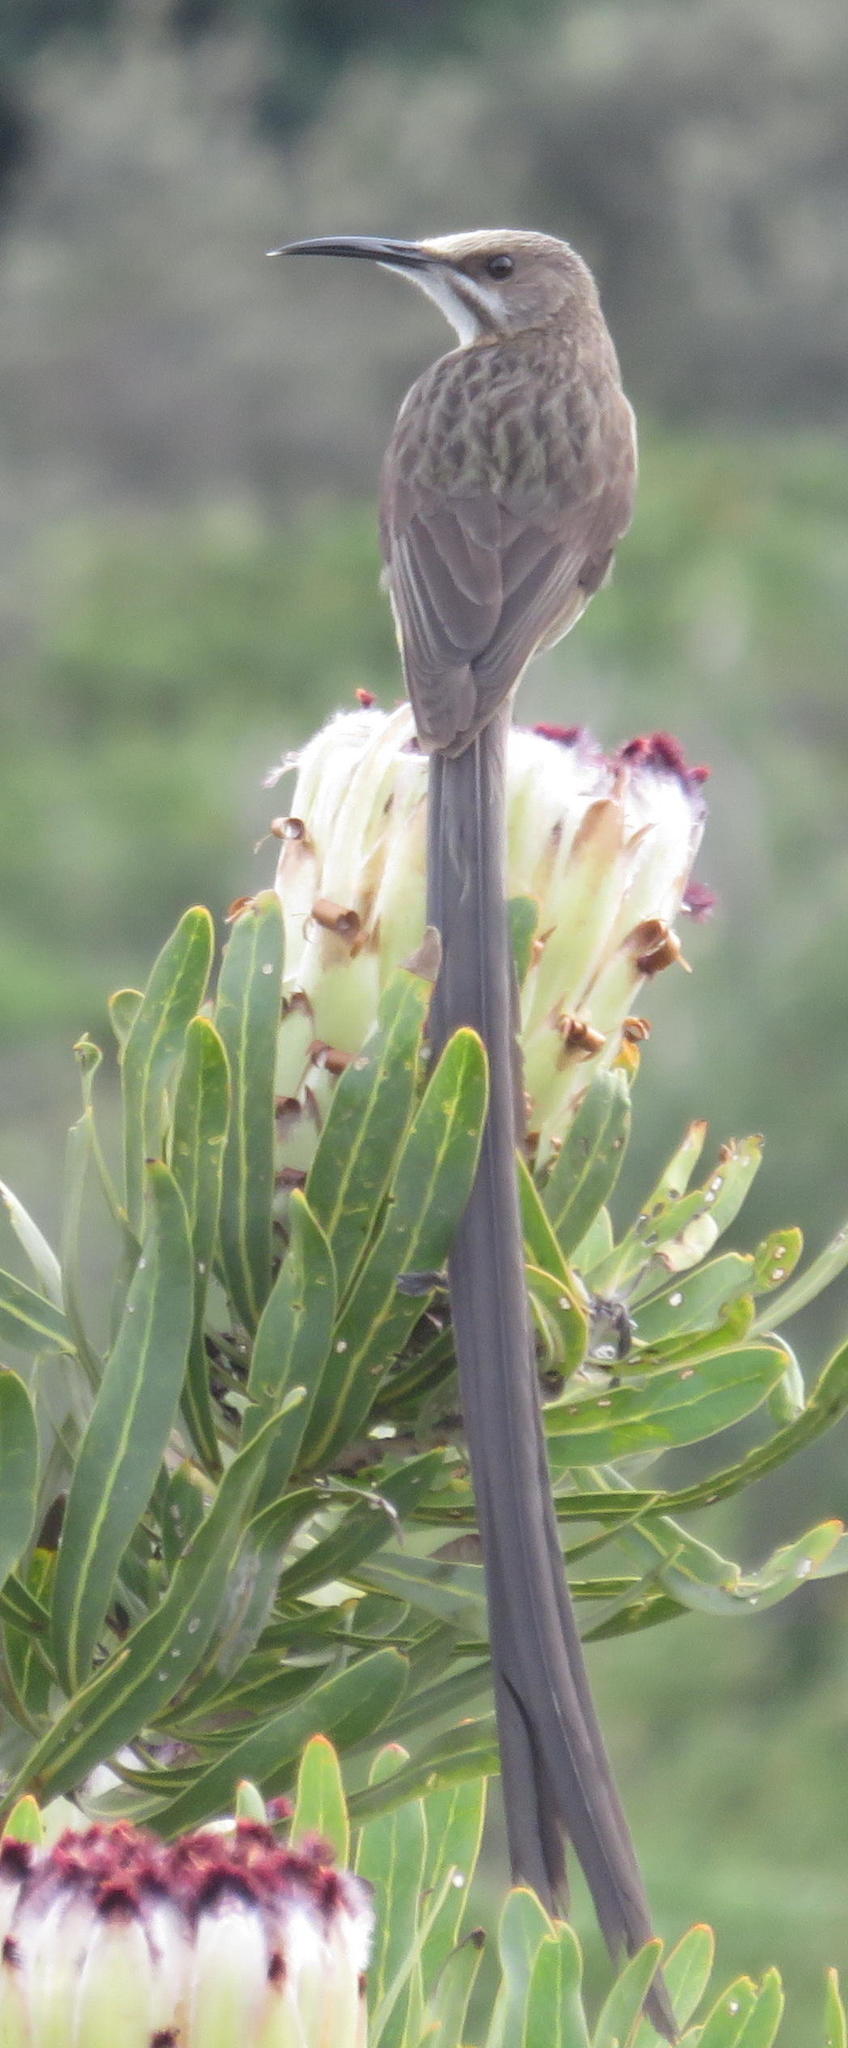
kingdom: Animalia
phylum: Chordata
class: Aves
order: Passeriformes
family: Promeropidae
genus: Promerops
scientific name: Promerops cafer
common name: Cape sugarbird
